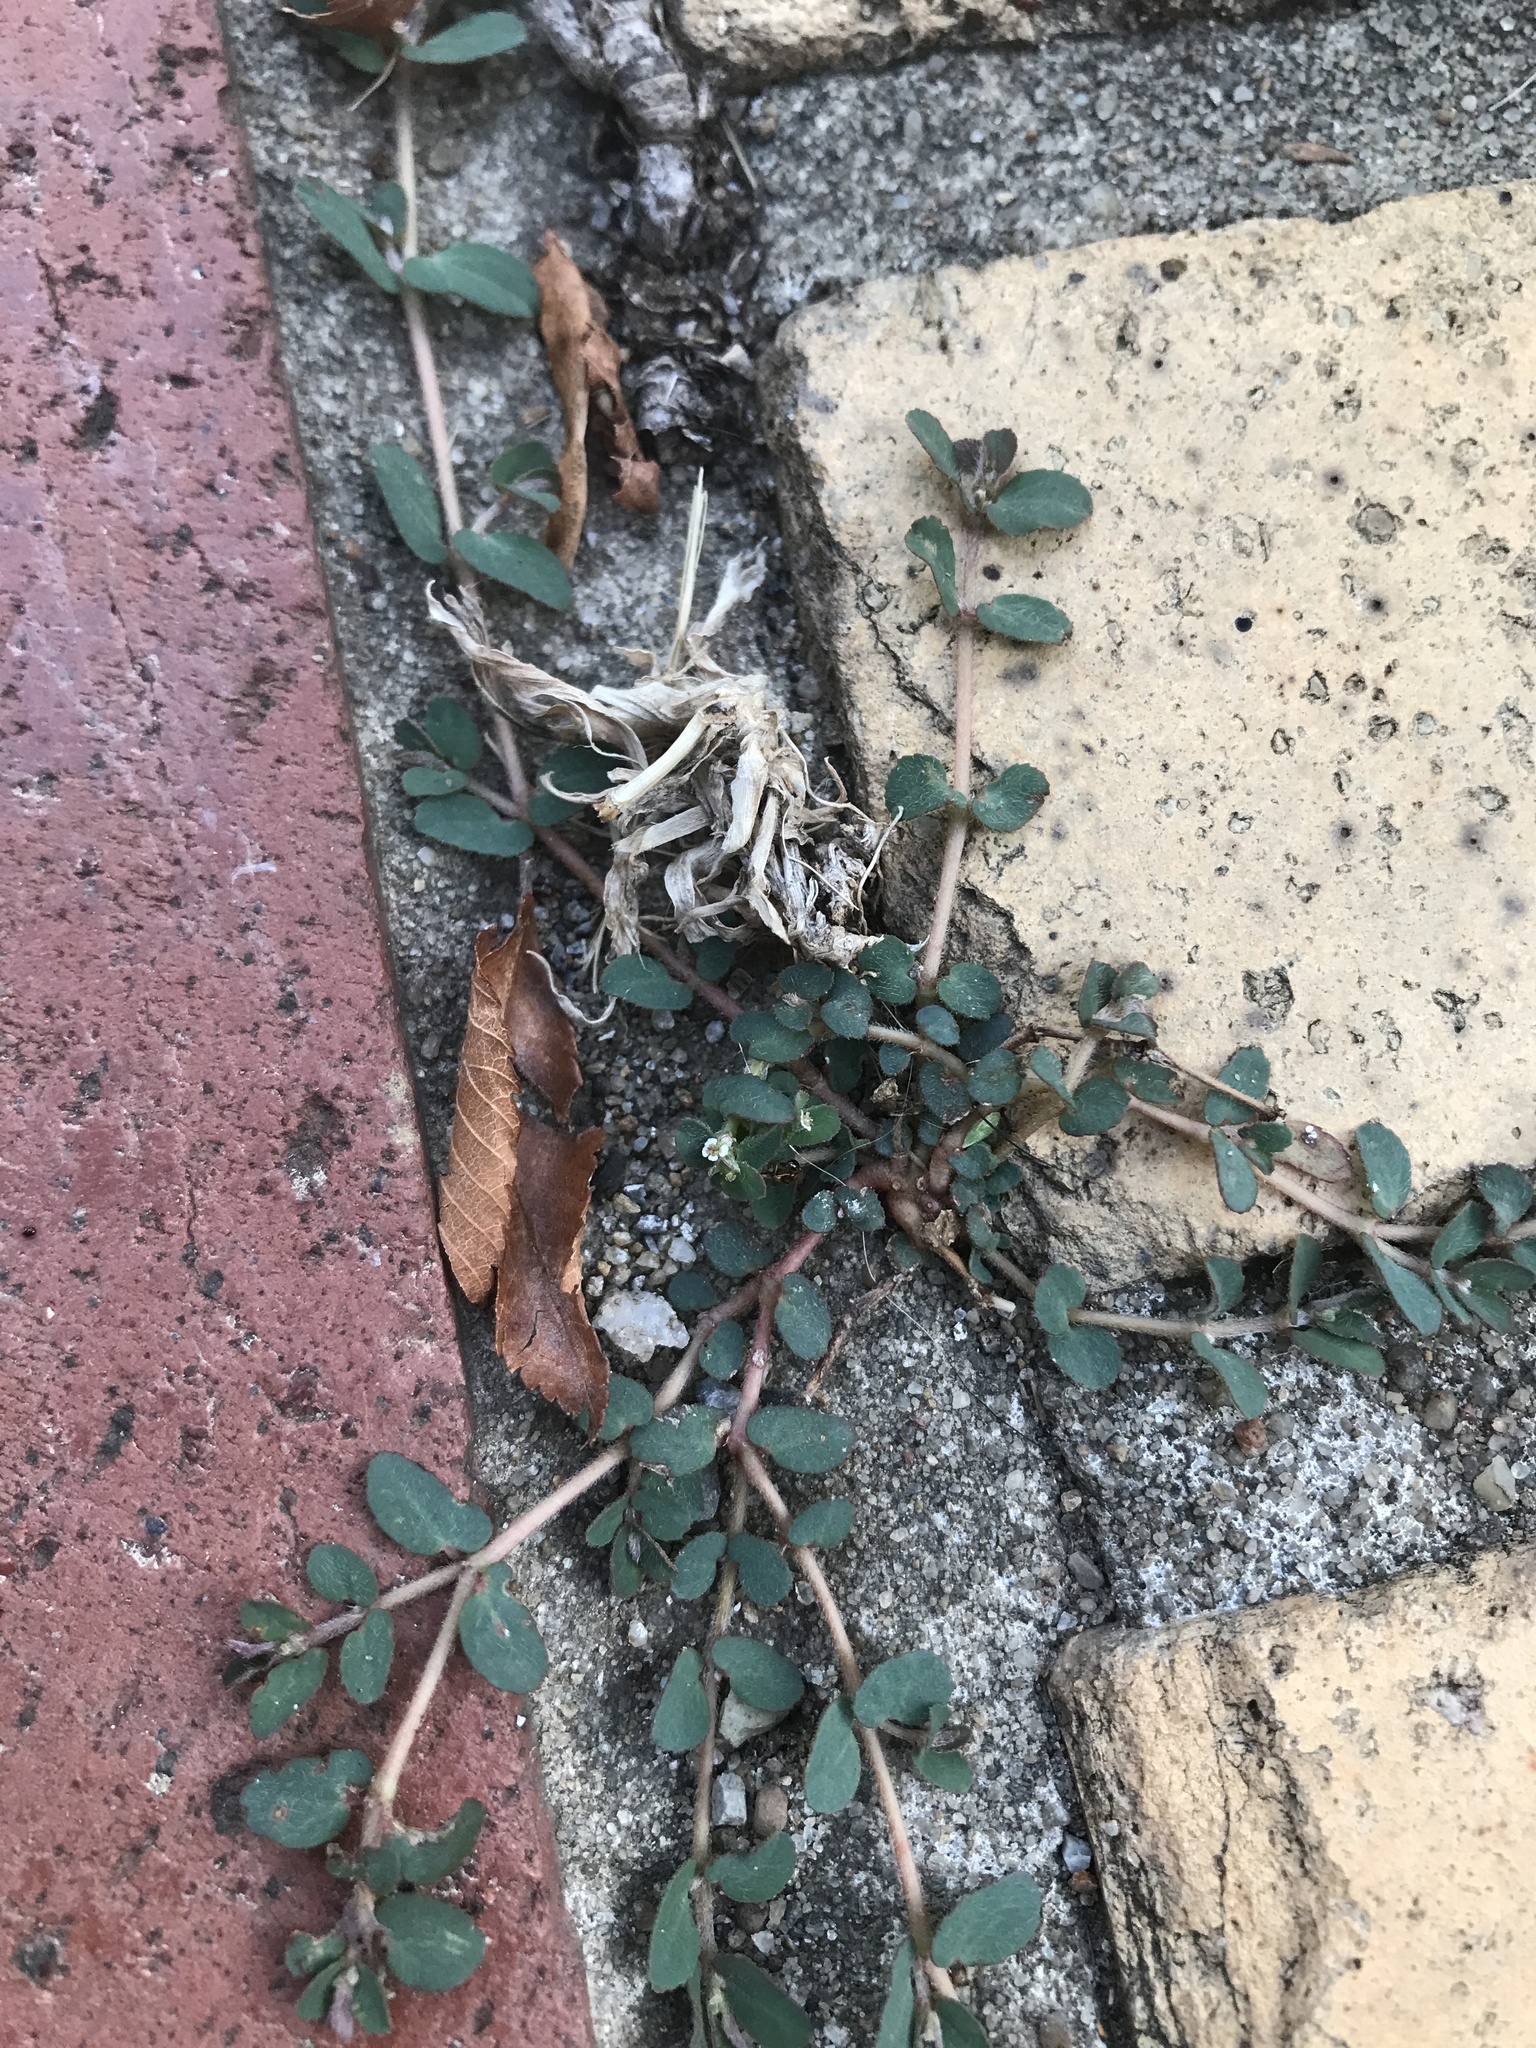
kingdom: Plantae
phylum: Tracheophyta
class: Magnoliopsida
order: Malpighiales
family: Euphorbiaceae
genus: Euphorbia
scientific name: Euphorbia maculata
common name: Spotted spurge
